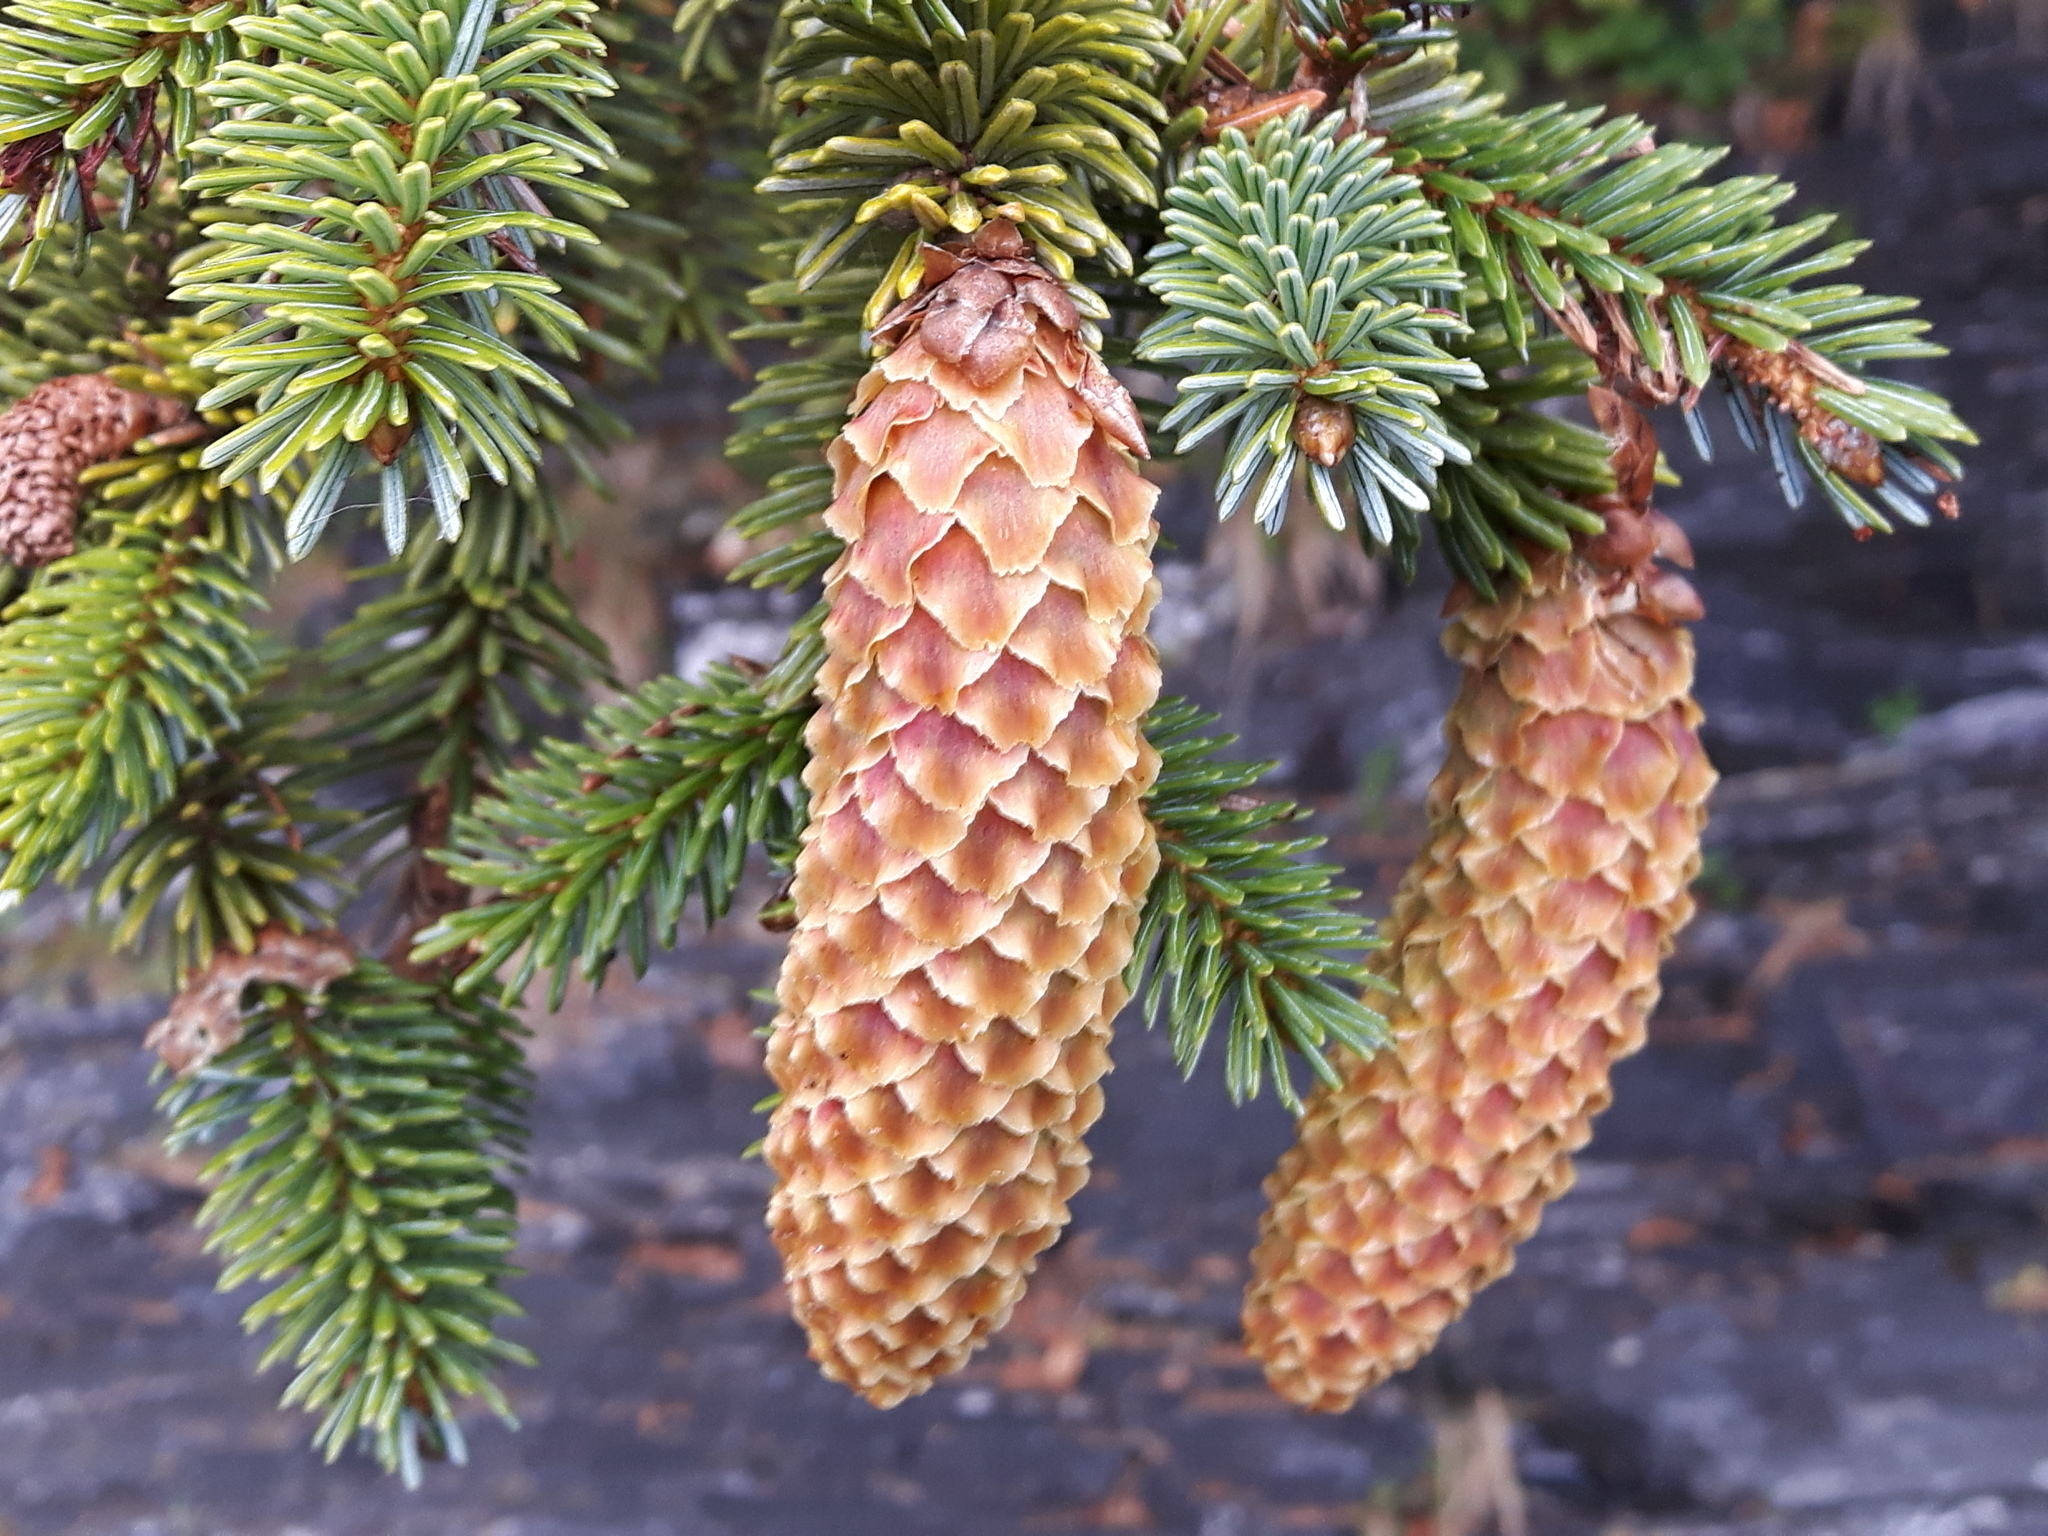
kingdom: Plantae
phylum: Tracheophyta
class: Pinopsida
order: Pinales
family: Pinaceae
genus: Picea
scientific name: Picea sitchensis
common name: Sitka spruce
